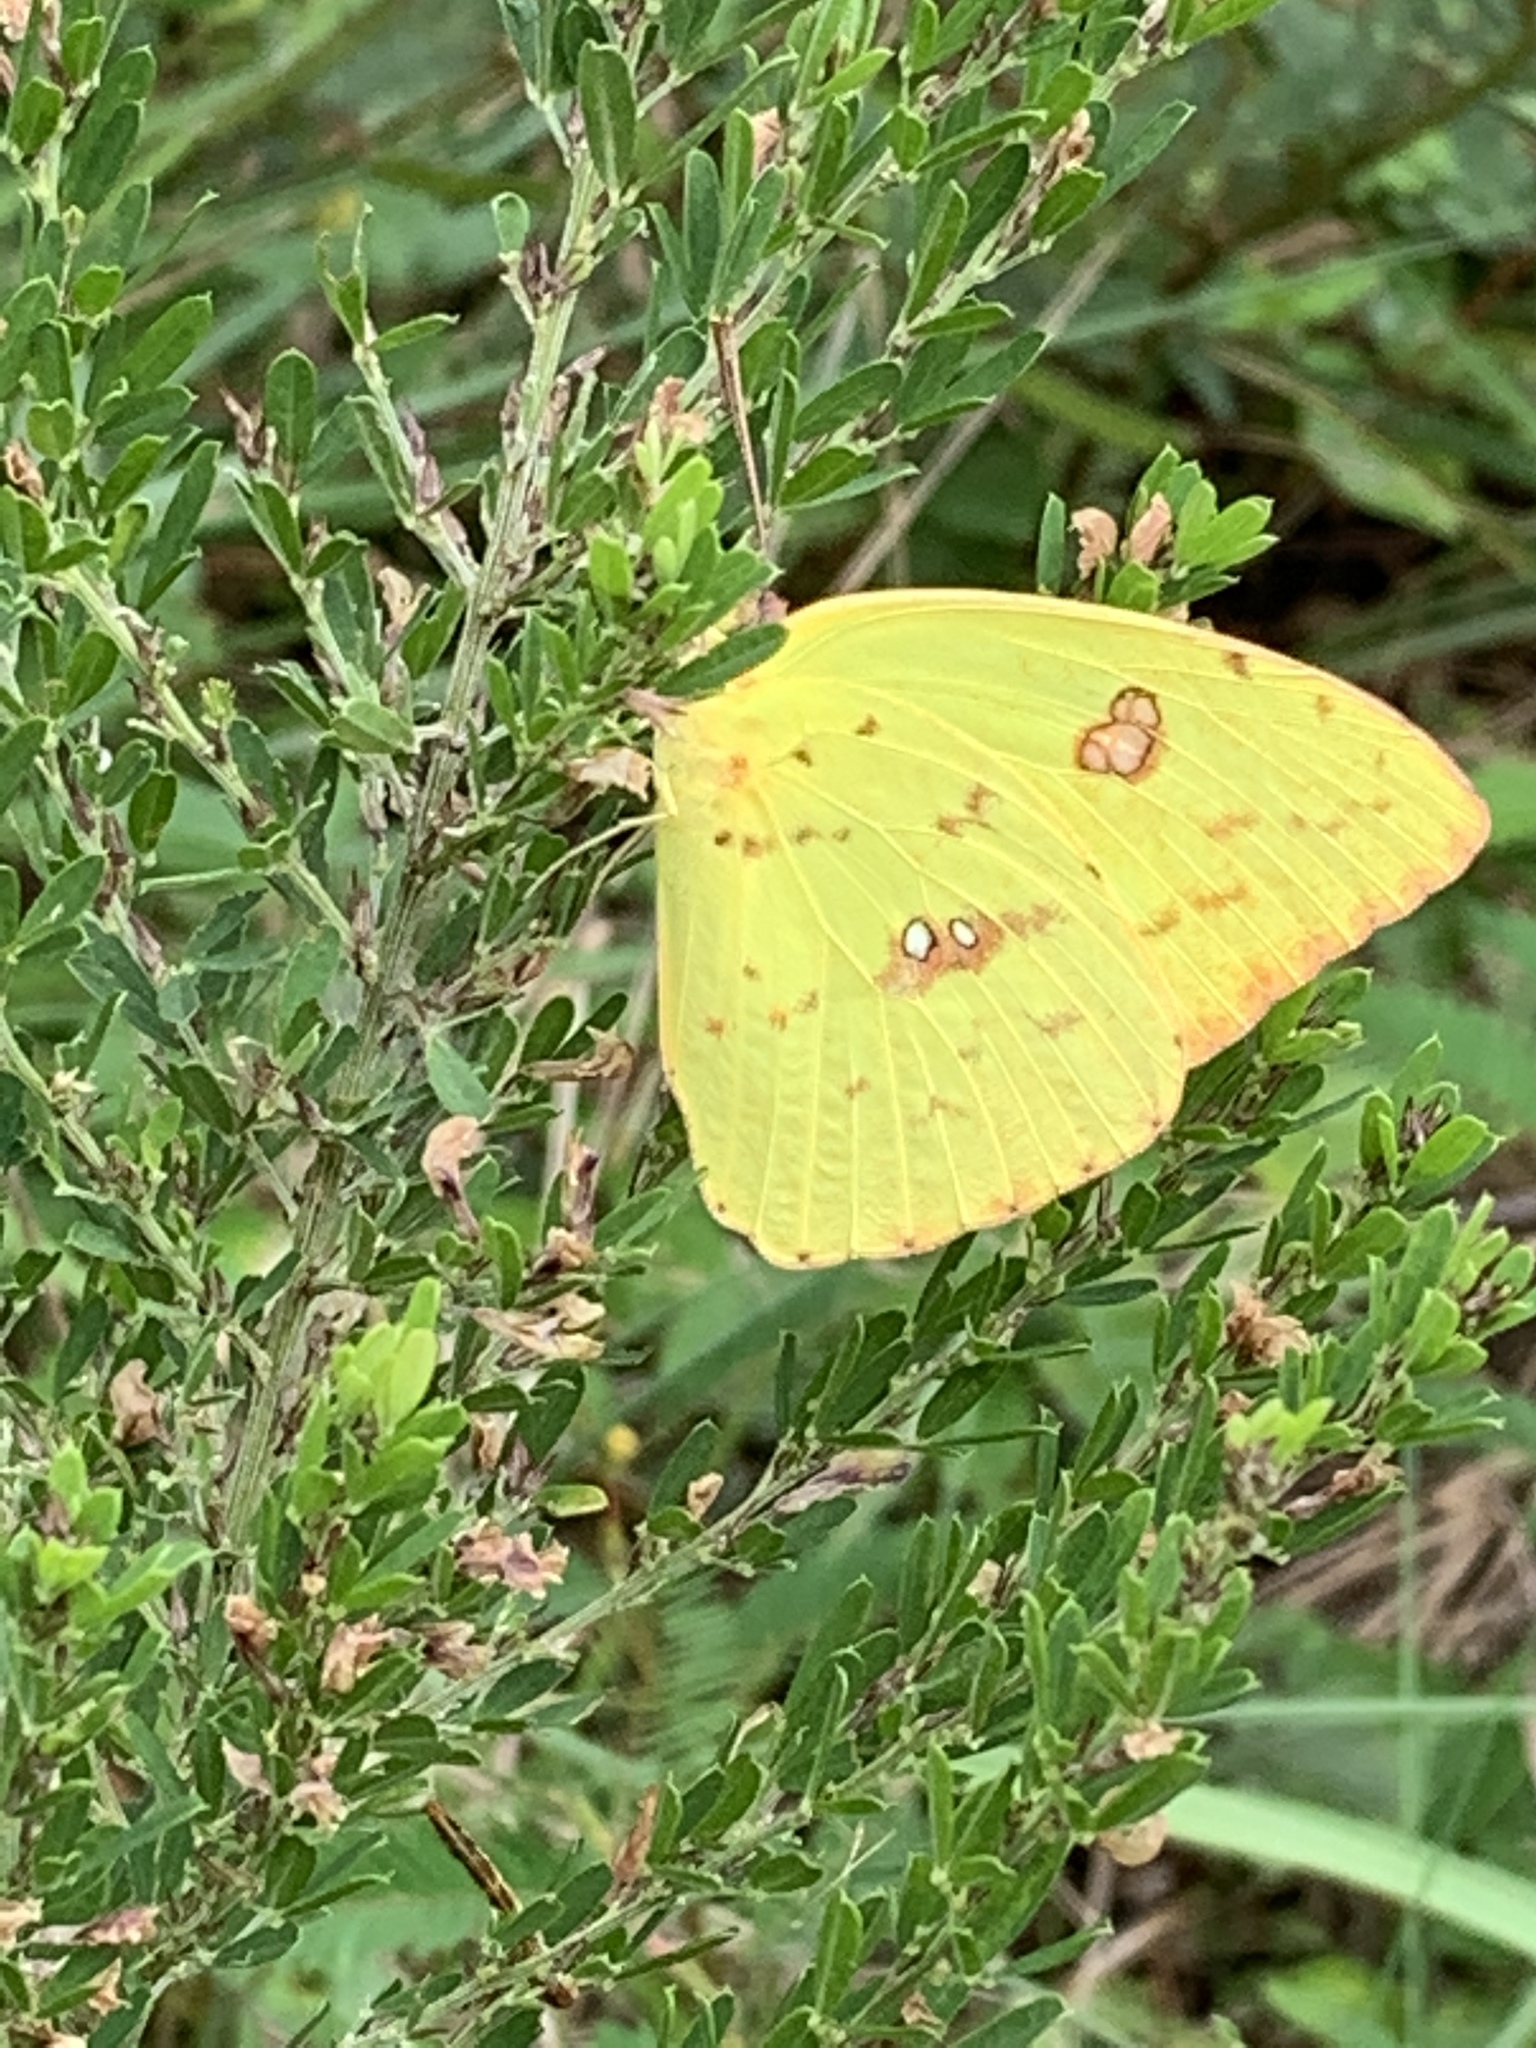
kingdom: Animalia
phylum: Arthropoda
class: Insecta
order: Lepidoptera
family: Pieridae
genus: Phoebis
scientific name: Phoebis sennae
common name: Cloudless sulphur
